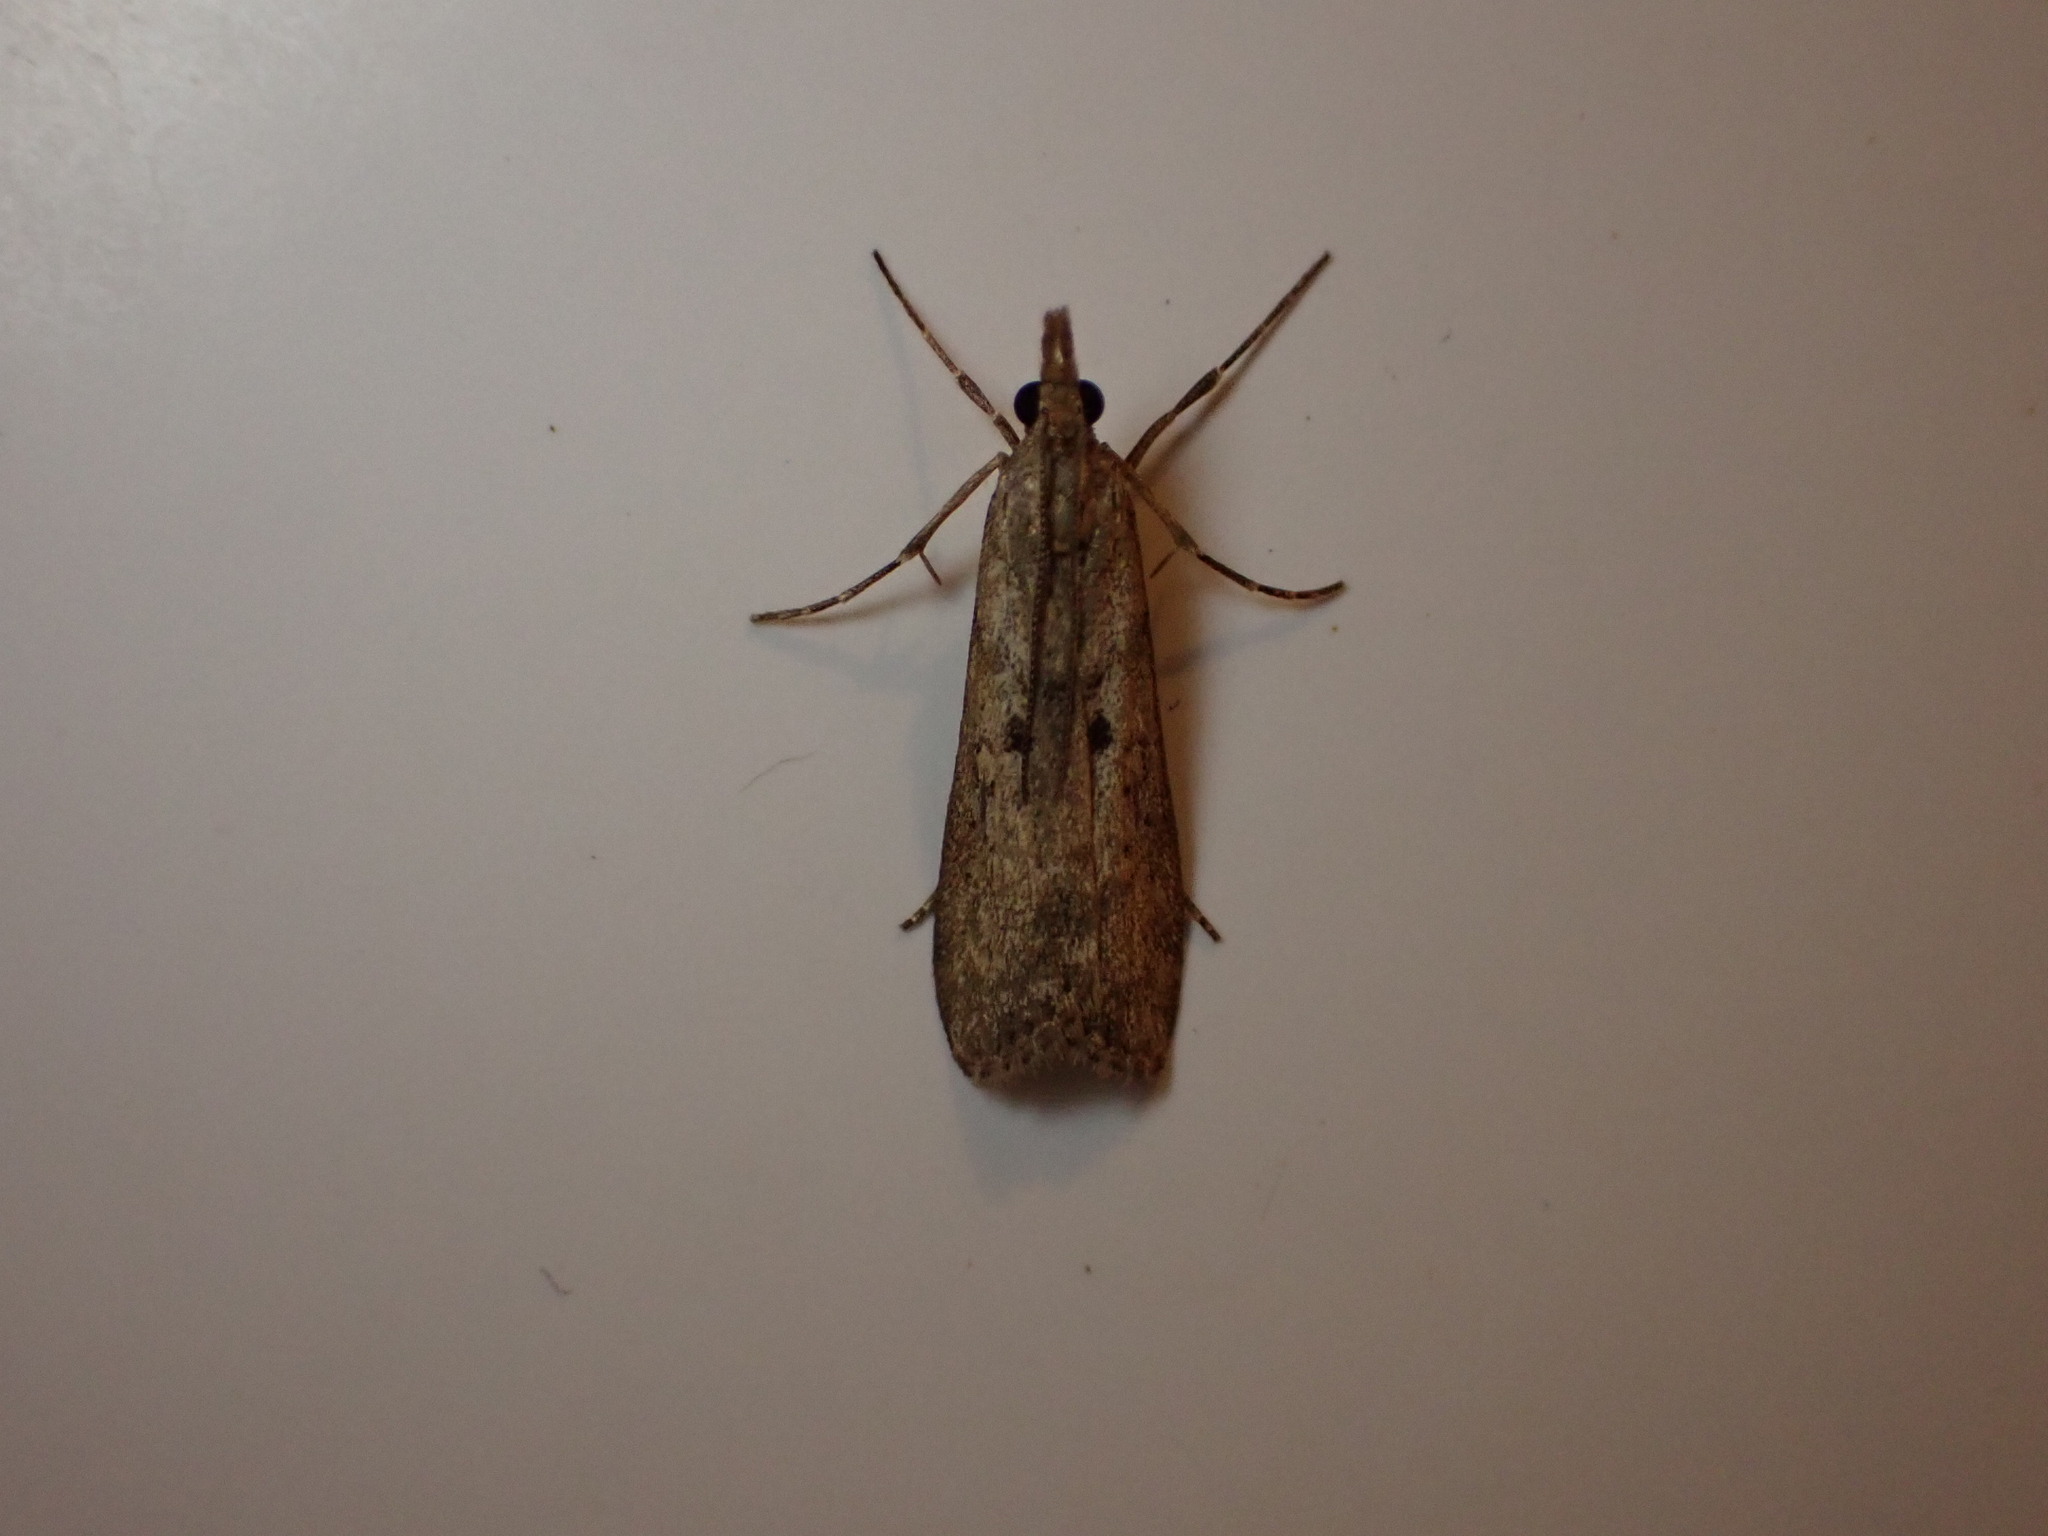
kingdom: Animalia
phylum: Arthropoda
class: Insecta
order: Lepidoptera
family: Crambidae
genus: Eudonia
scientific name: Eudonia leptalea
